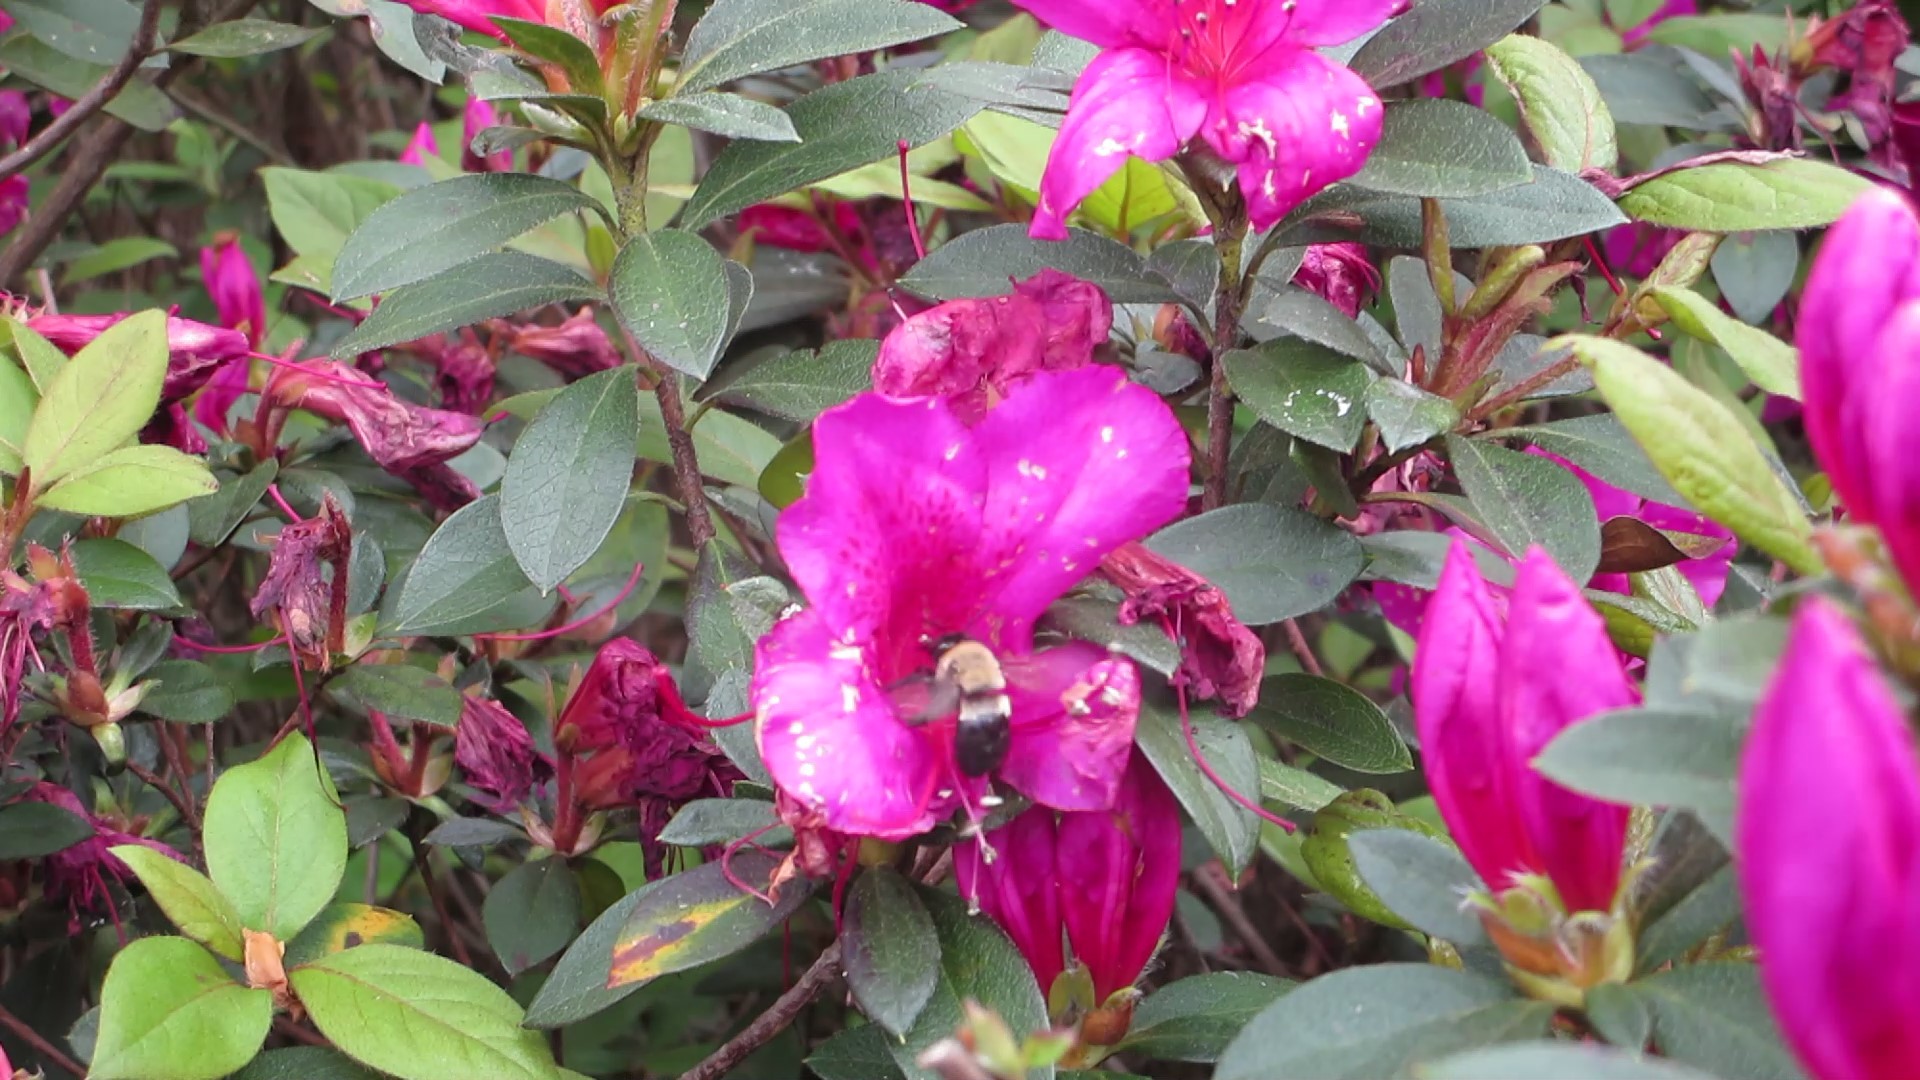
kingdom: Animalia
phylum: Arthropoda
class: Insecta
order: Hymenoptera
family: Apidae
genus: Habropoda
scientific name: Habropoda laboriosa
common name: Southeastern blueberry bee
